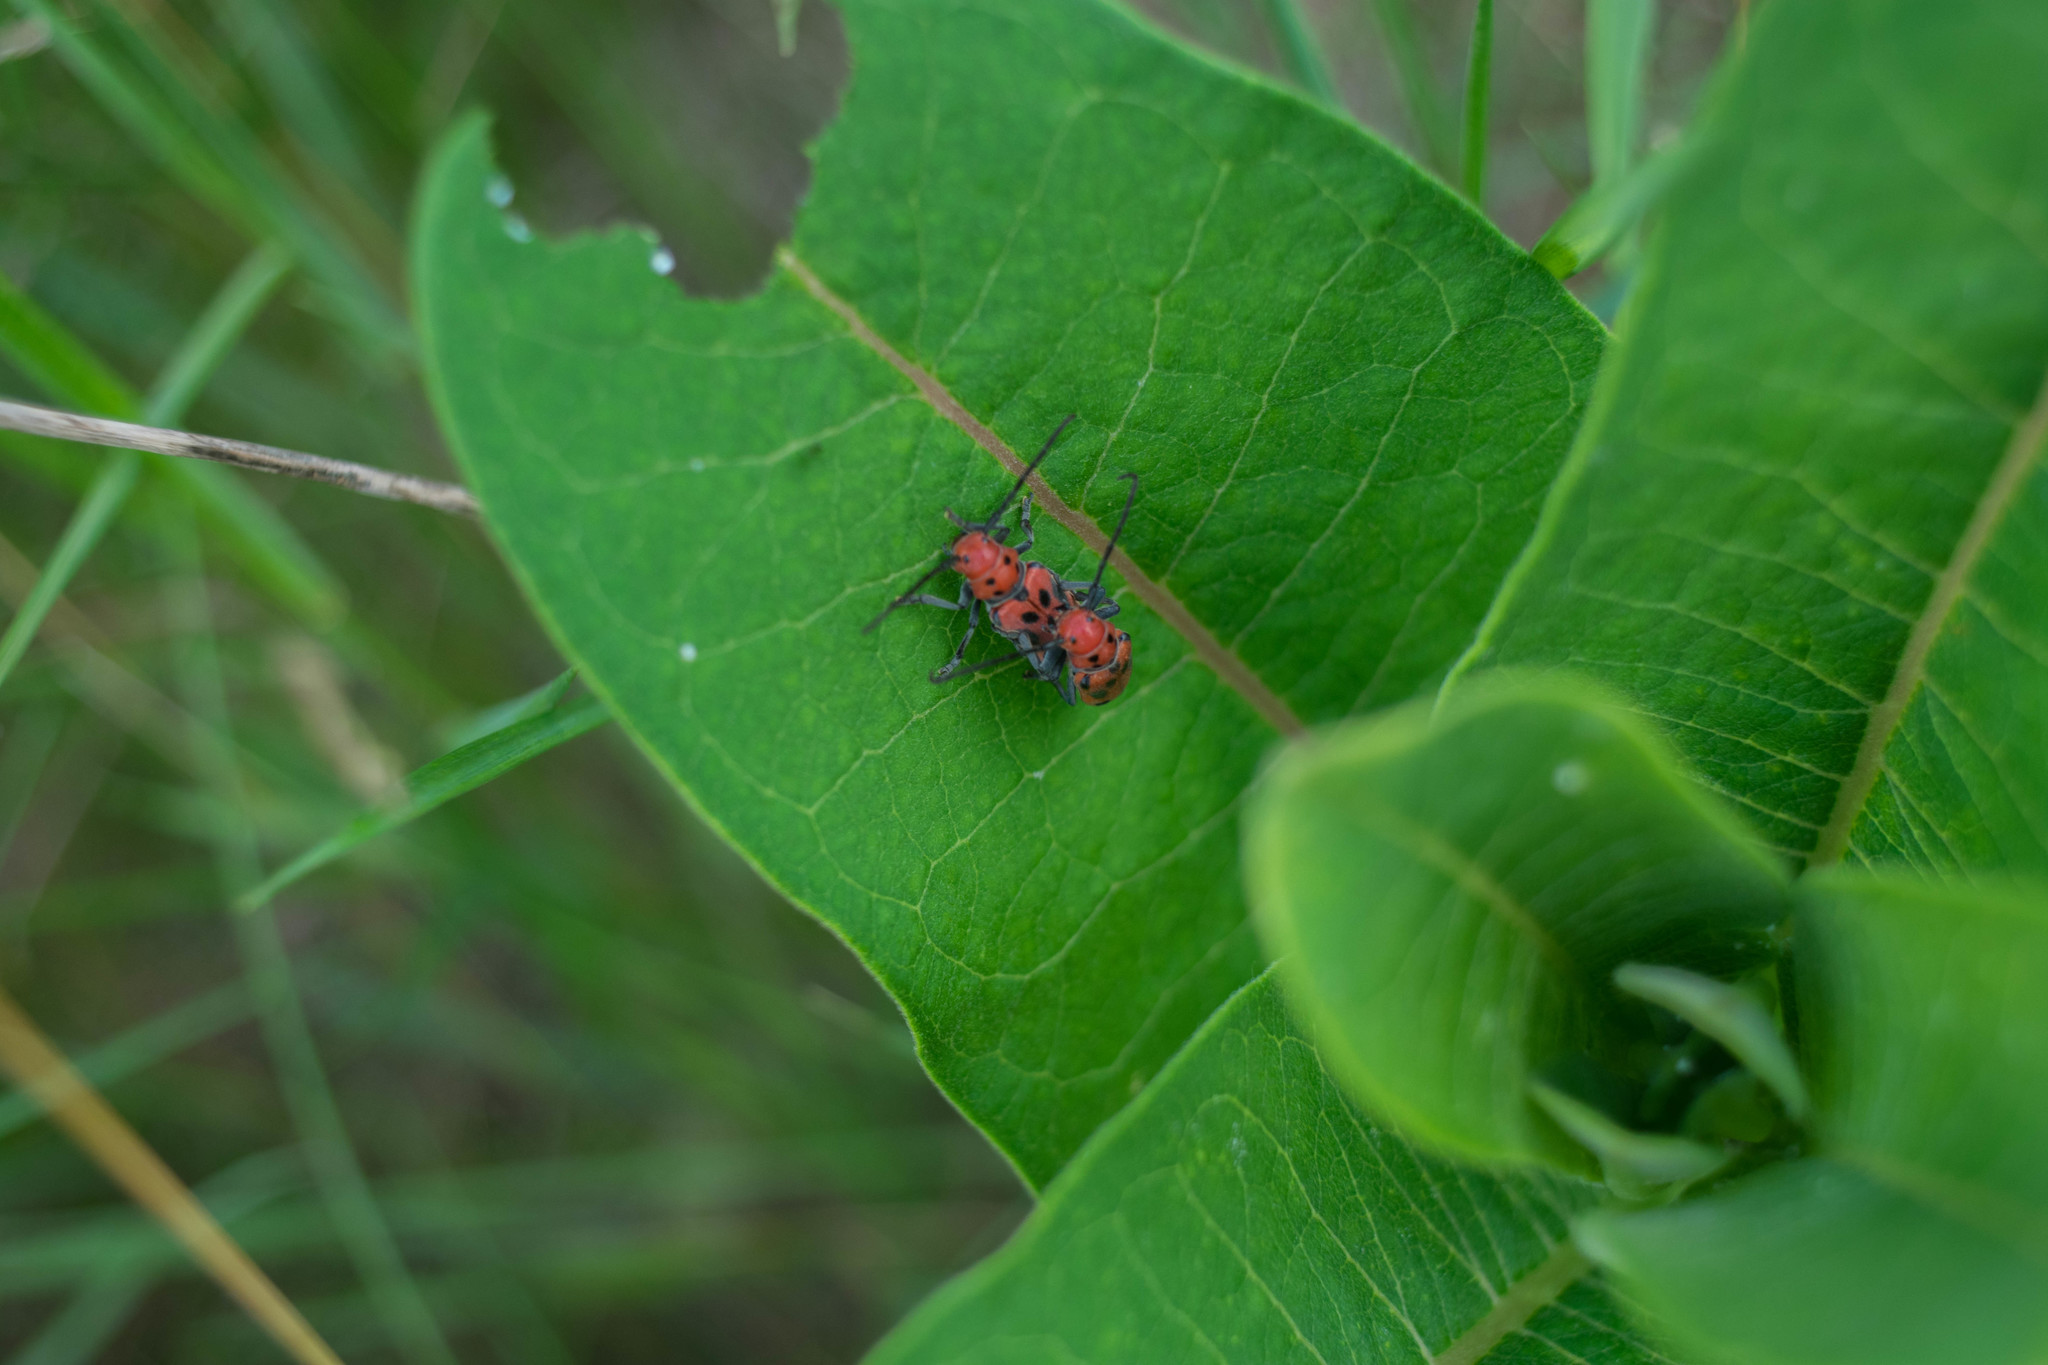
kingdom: Animalia
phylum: Arthropoda
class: Insecta
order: Coleoptera
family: Cerambycidae
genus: Tetraopes
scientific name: Tetraopes tetrophthalmus
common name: Red milkweed beetle
